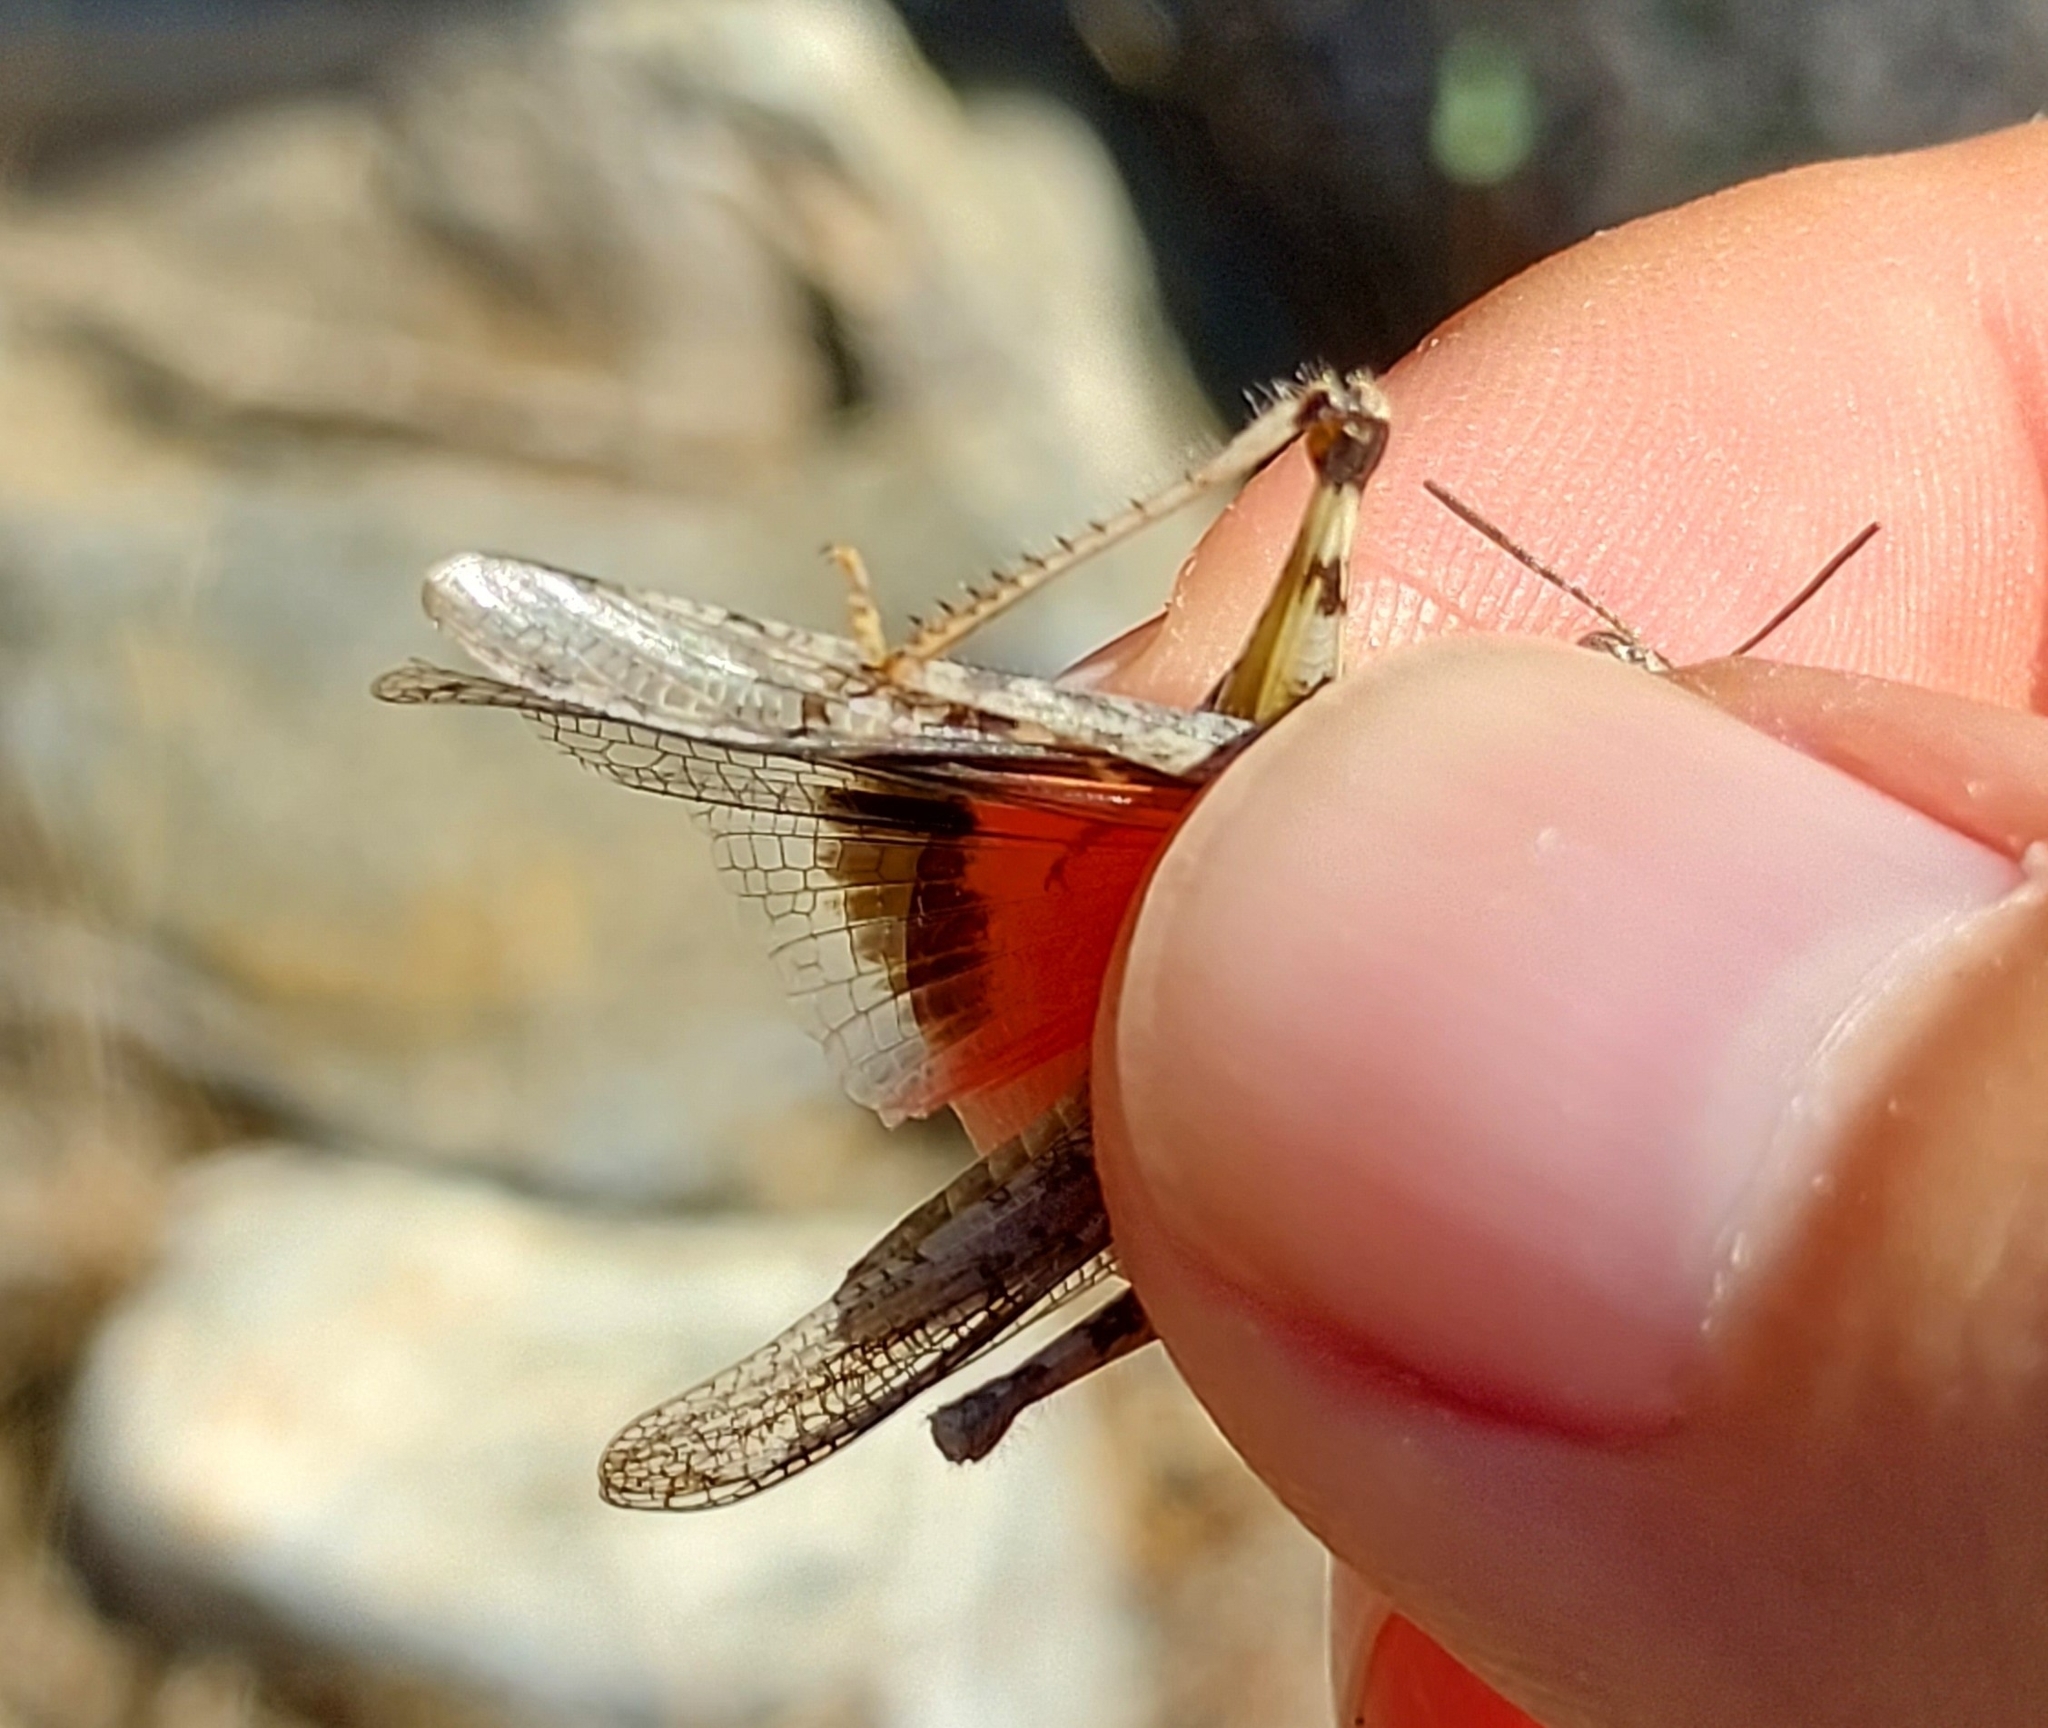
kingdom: Animalia
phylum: Arthropoda
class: Insecta
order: Orthoptera
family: Acrididae
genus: Acrotylus
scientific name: Acrotylus patruelis
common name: Slender burrowing grasshopper
